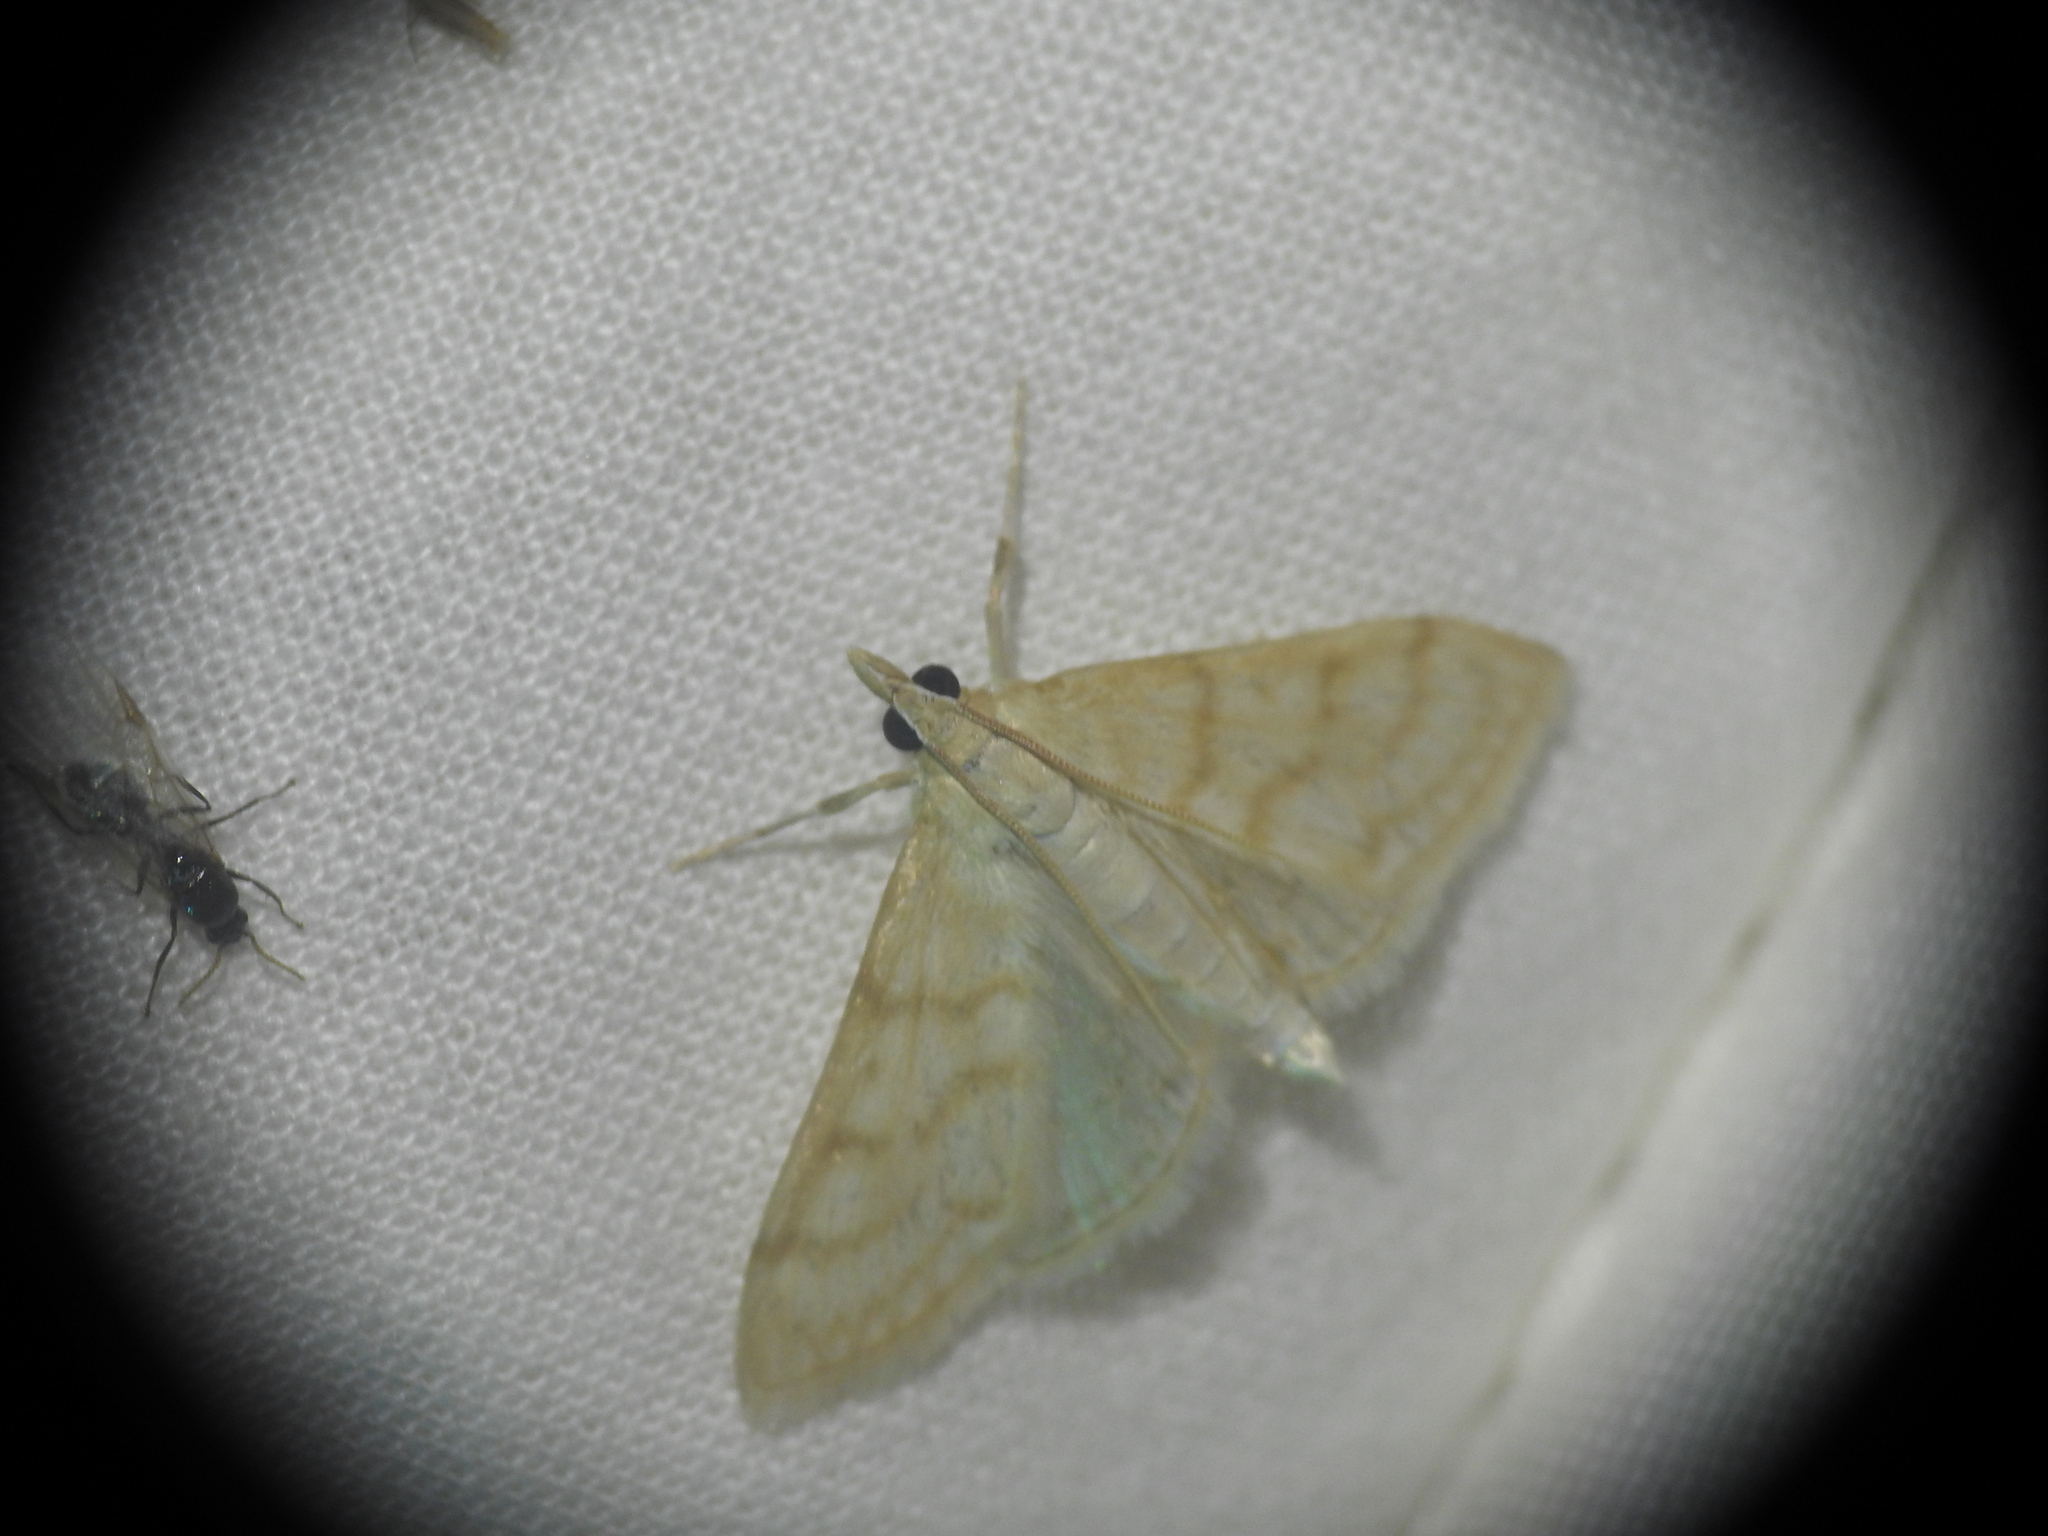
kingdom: Animalia
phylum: Arthropoda
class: Insecta
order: Lepidoptera
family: Crambidae
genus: Paracorsia
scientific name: Paracorsia repandalis
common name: Mullein moth
